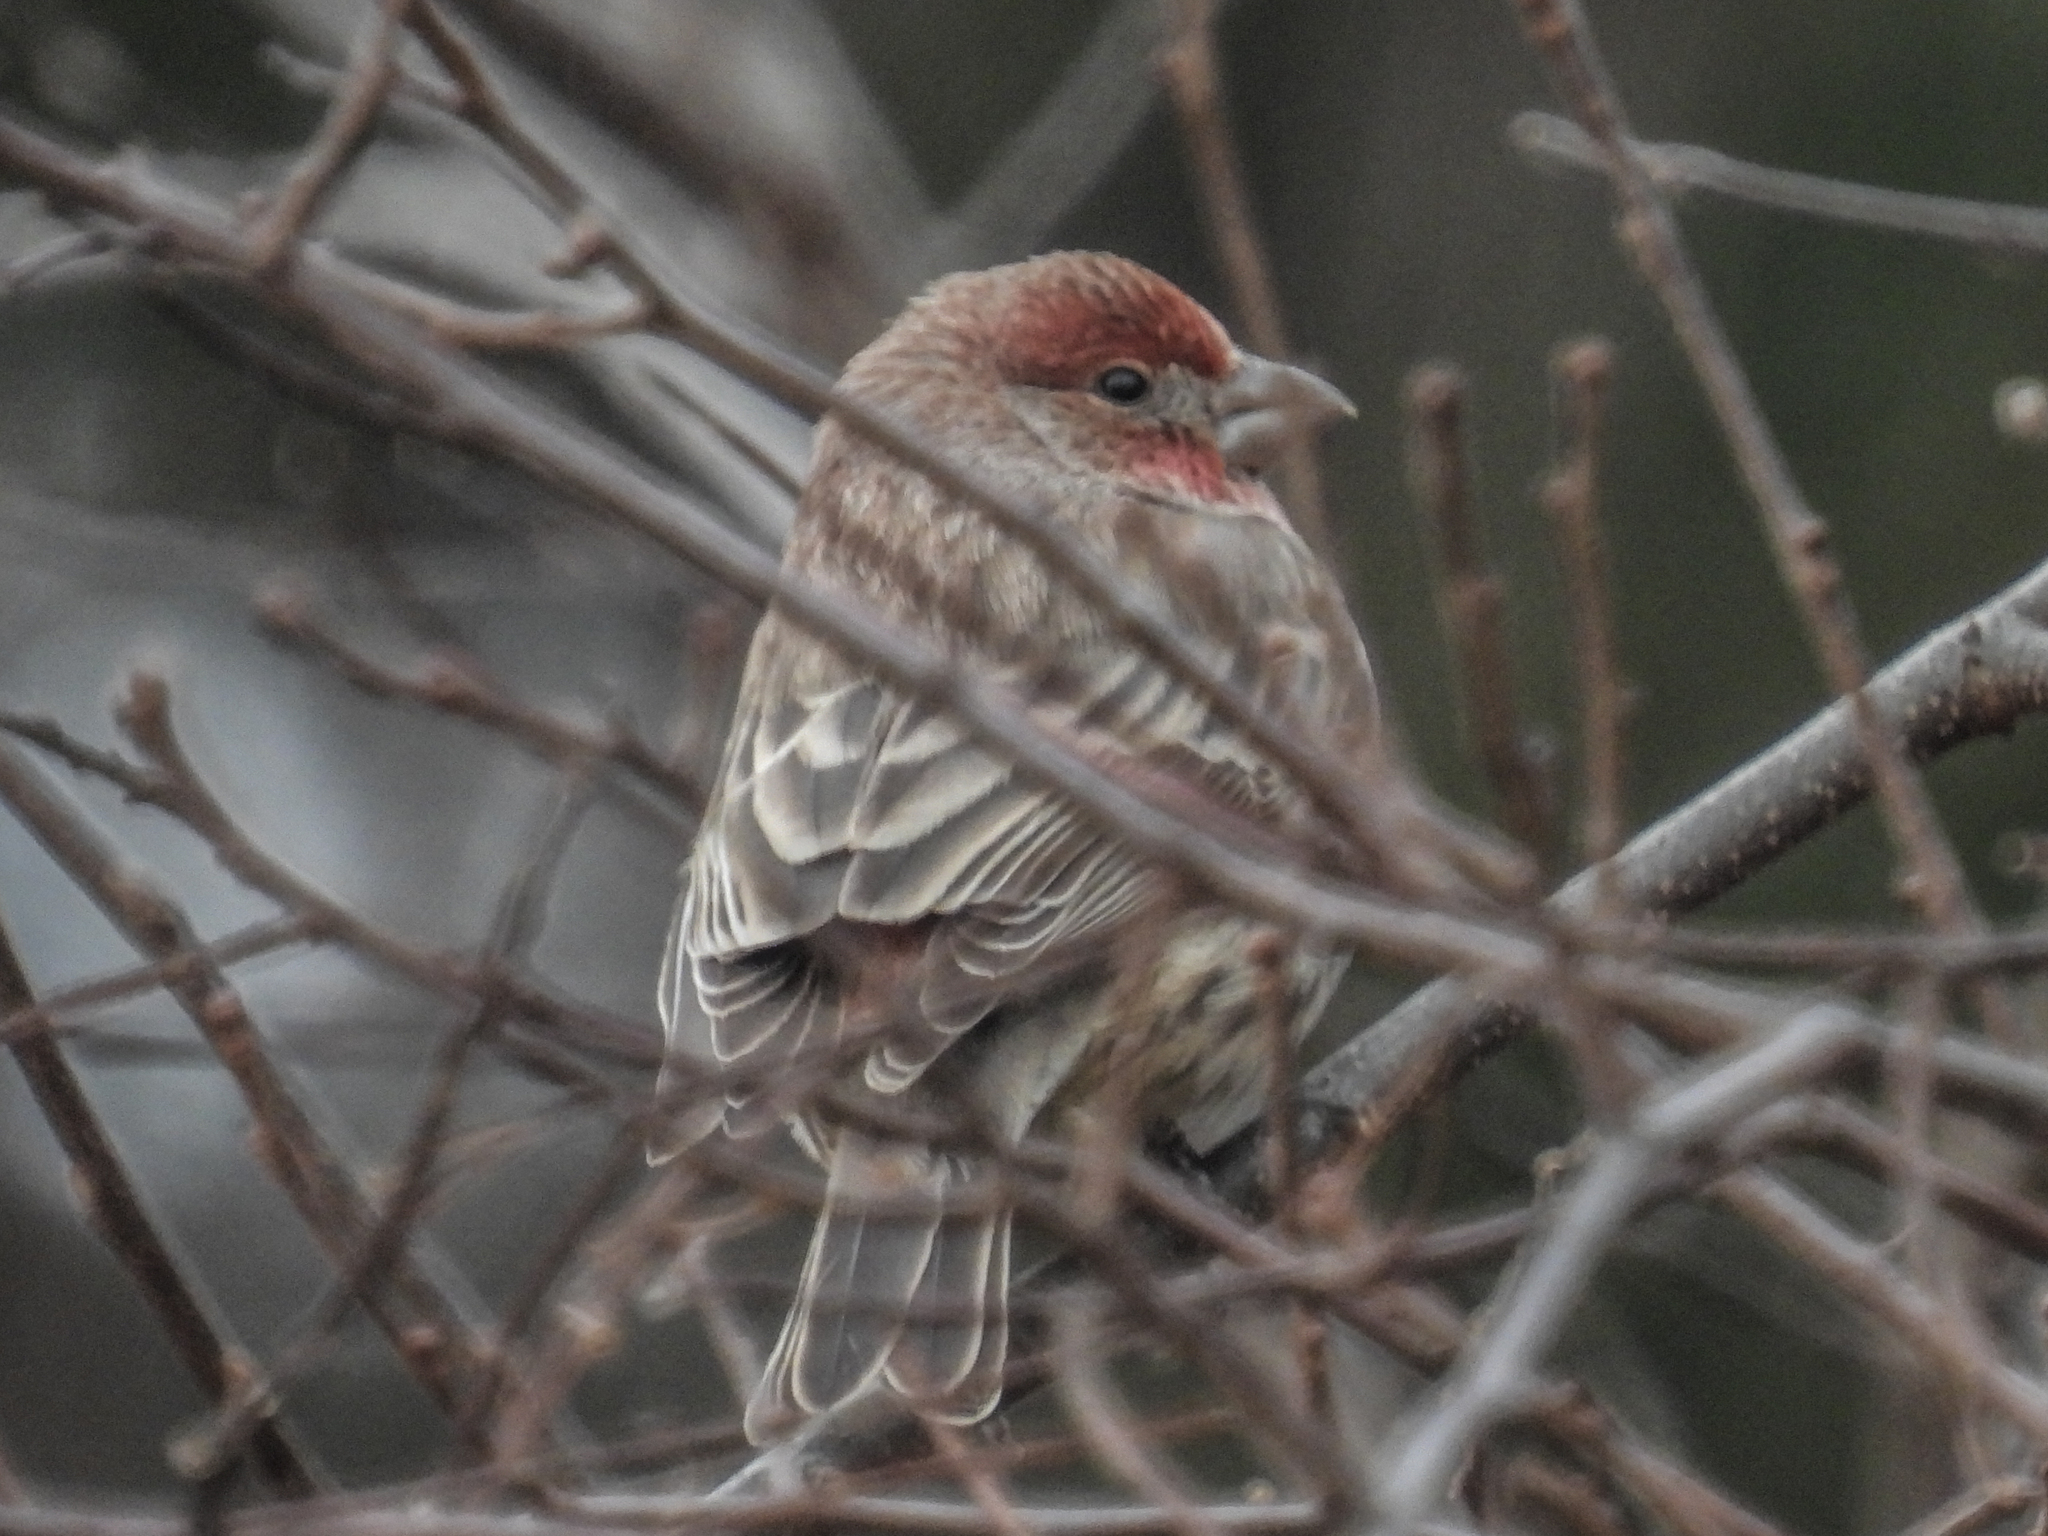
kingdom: Animalia
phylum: Chordata
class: Aves
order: Passeriformes
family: Fringillidae
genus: Haemorhous
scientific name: Haemorhous mexicanus
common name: House finch
